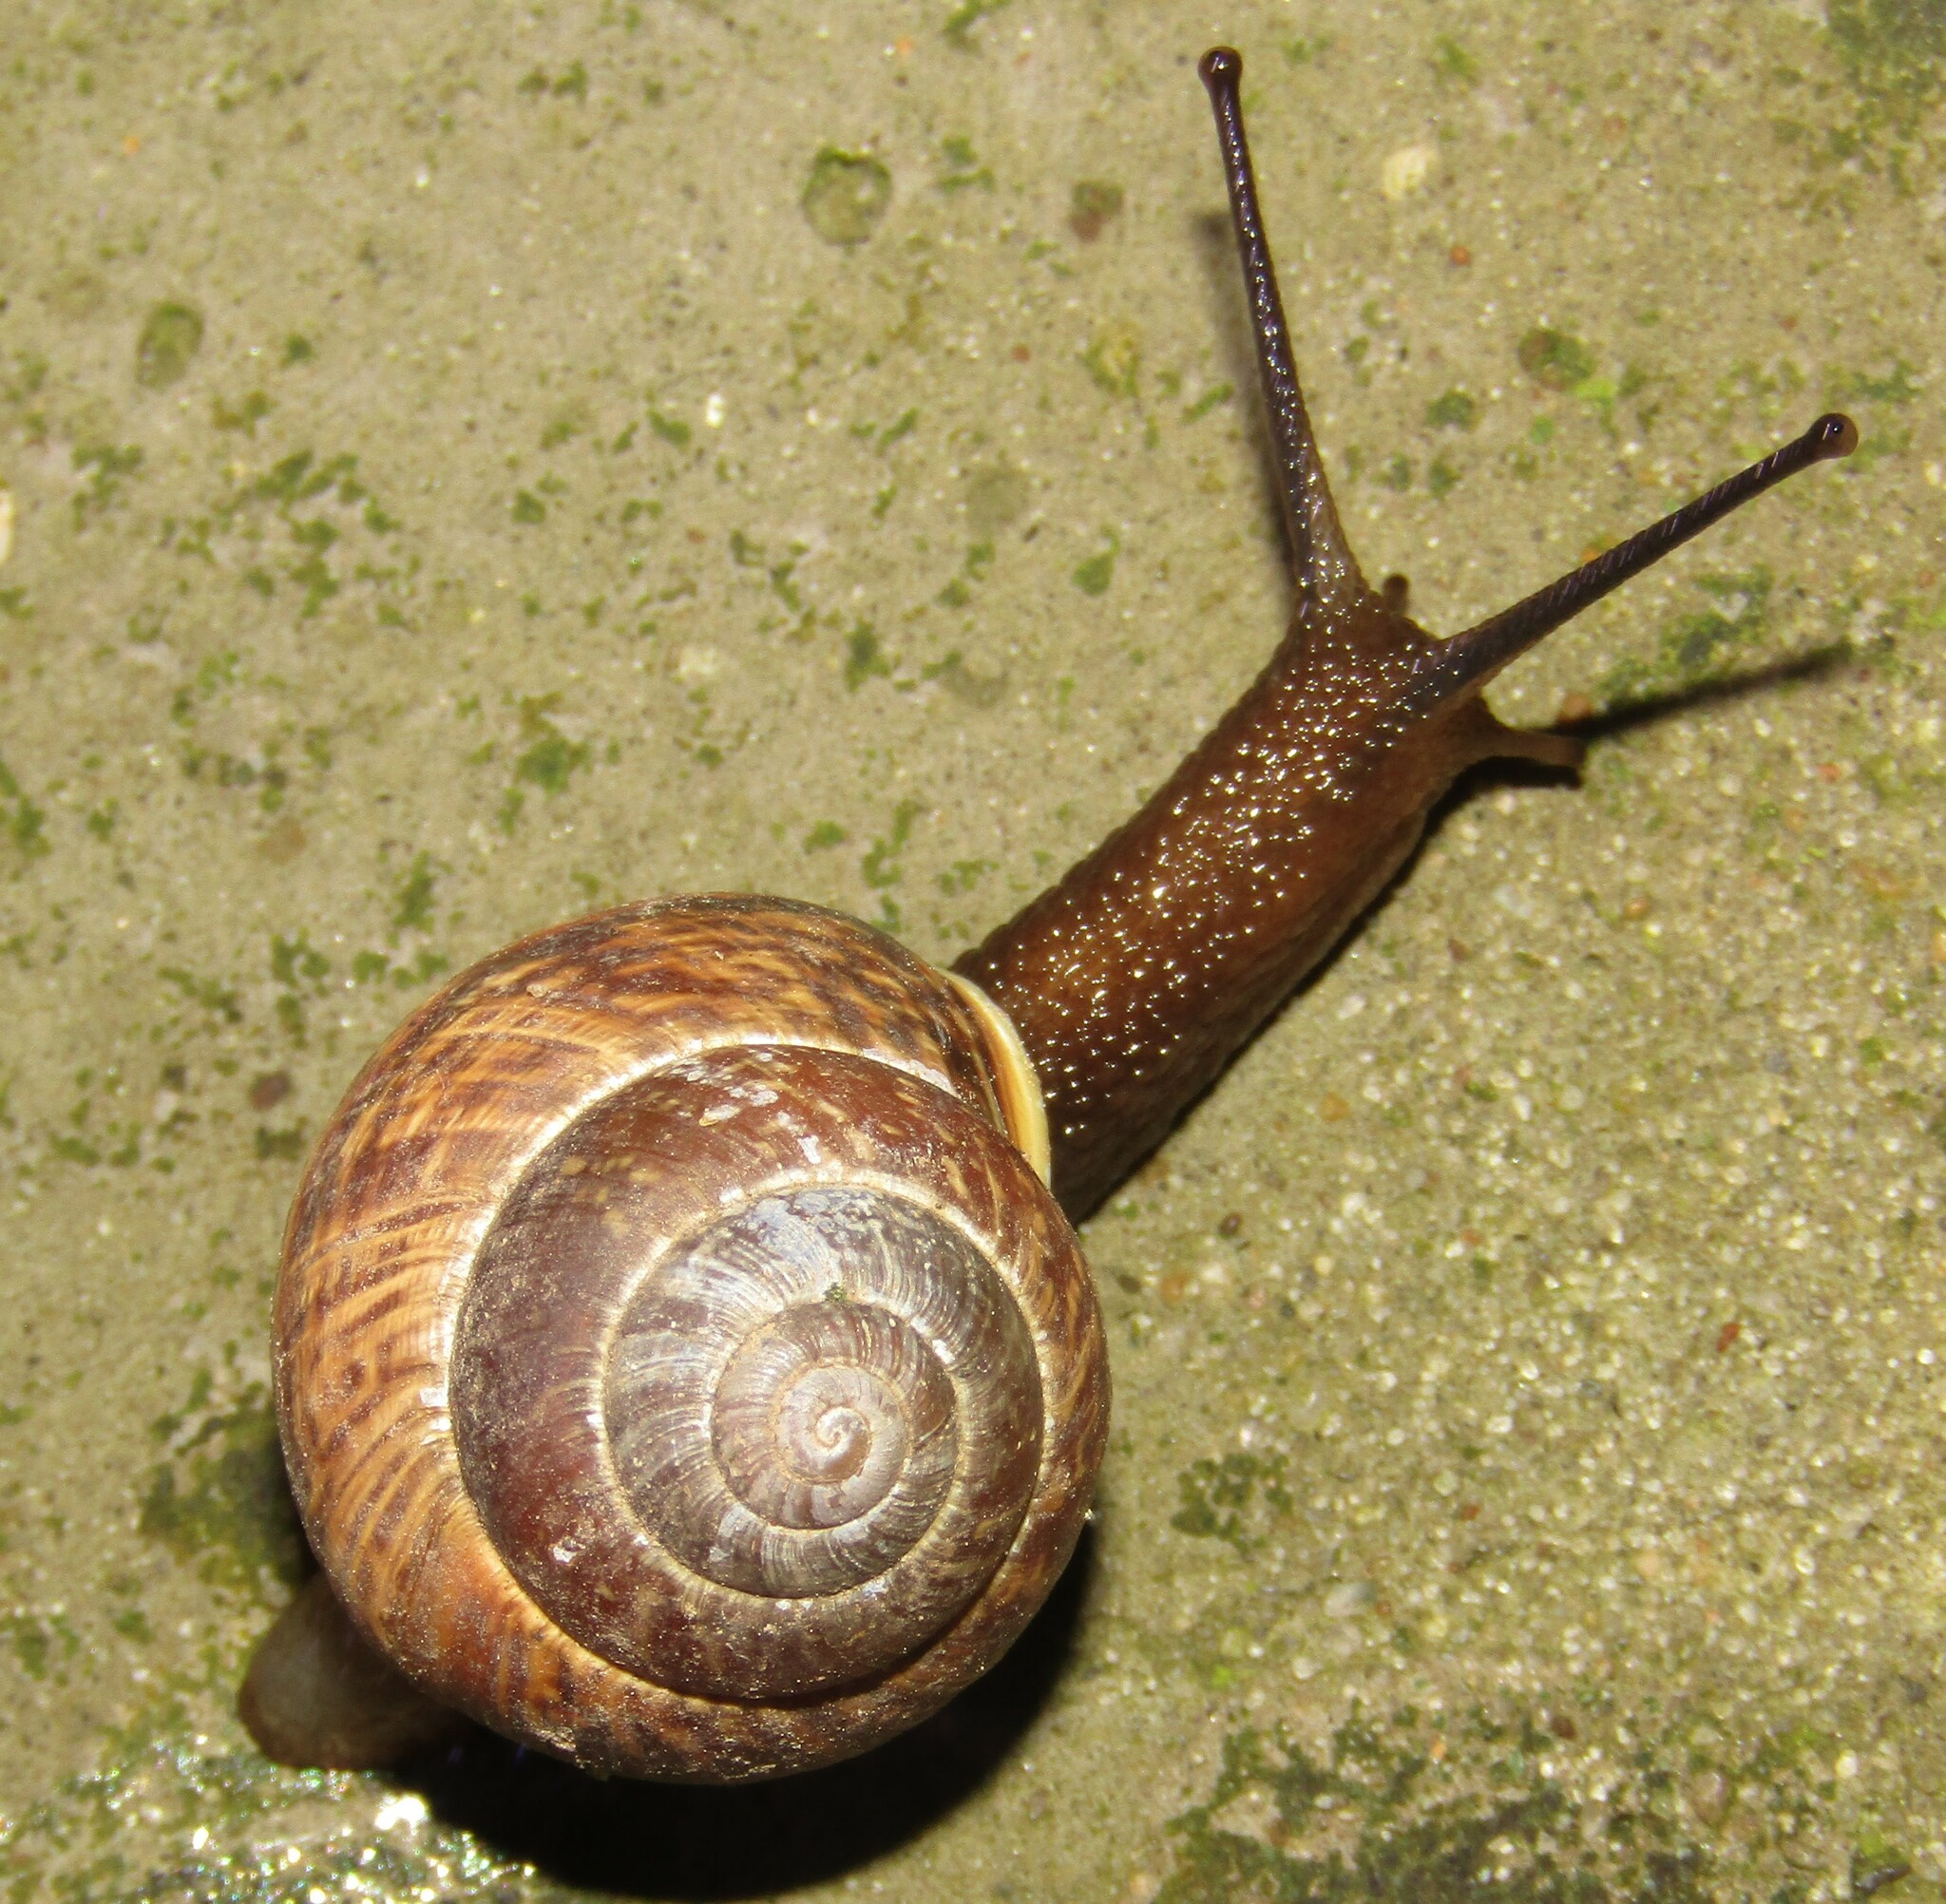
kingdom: Animalia
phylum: Mollusca
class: Gastropoda
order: Stylommatophora
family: Helicidae
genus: Arianta
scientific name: Arianta arbustorum
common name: Copse snail
